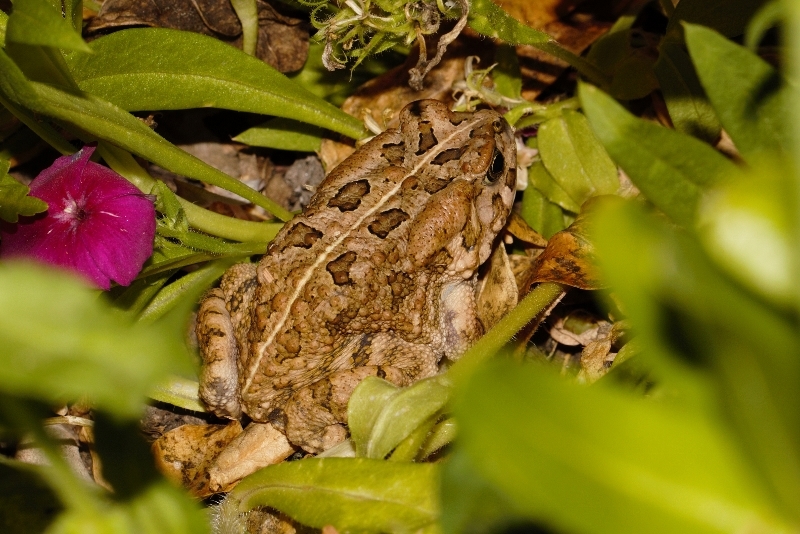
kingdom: Animalia
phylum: Chordata
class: Amphibia
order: Anura
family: Bufonidae
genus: Sclerophrys
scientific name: Sclerophrys gutturalis
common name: African common toad
